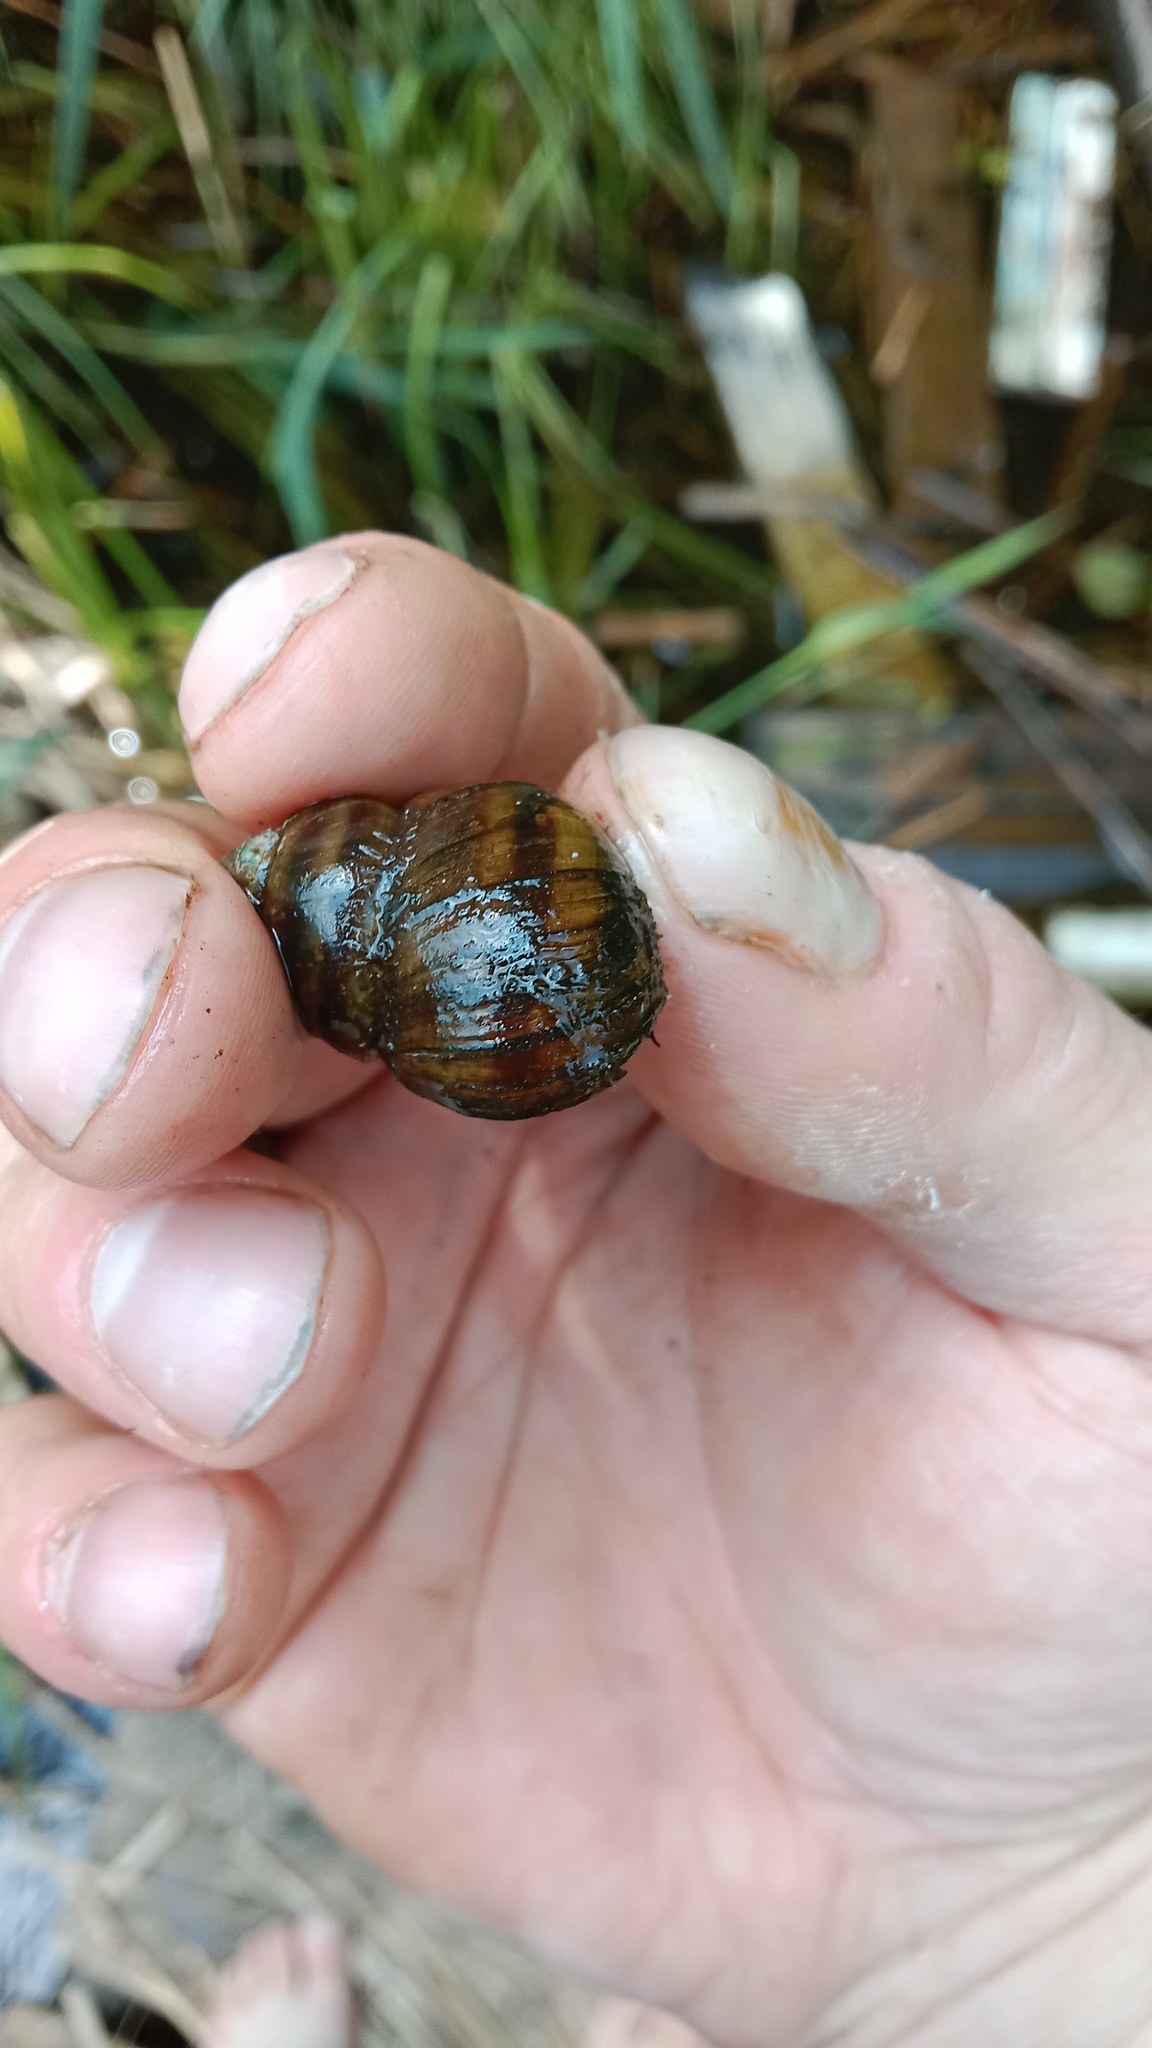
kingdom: Animalia
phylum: Mollusca
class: Gastropoda
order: Architaenioglossa
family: Viviparidae
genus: Viviparus
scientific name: Viviparus viviparus
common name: River snail
